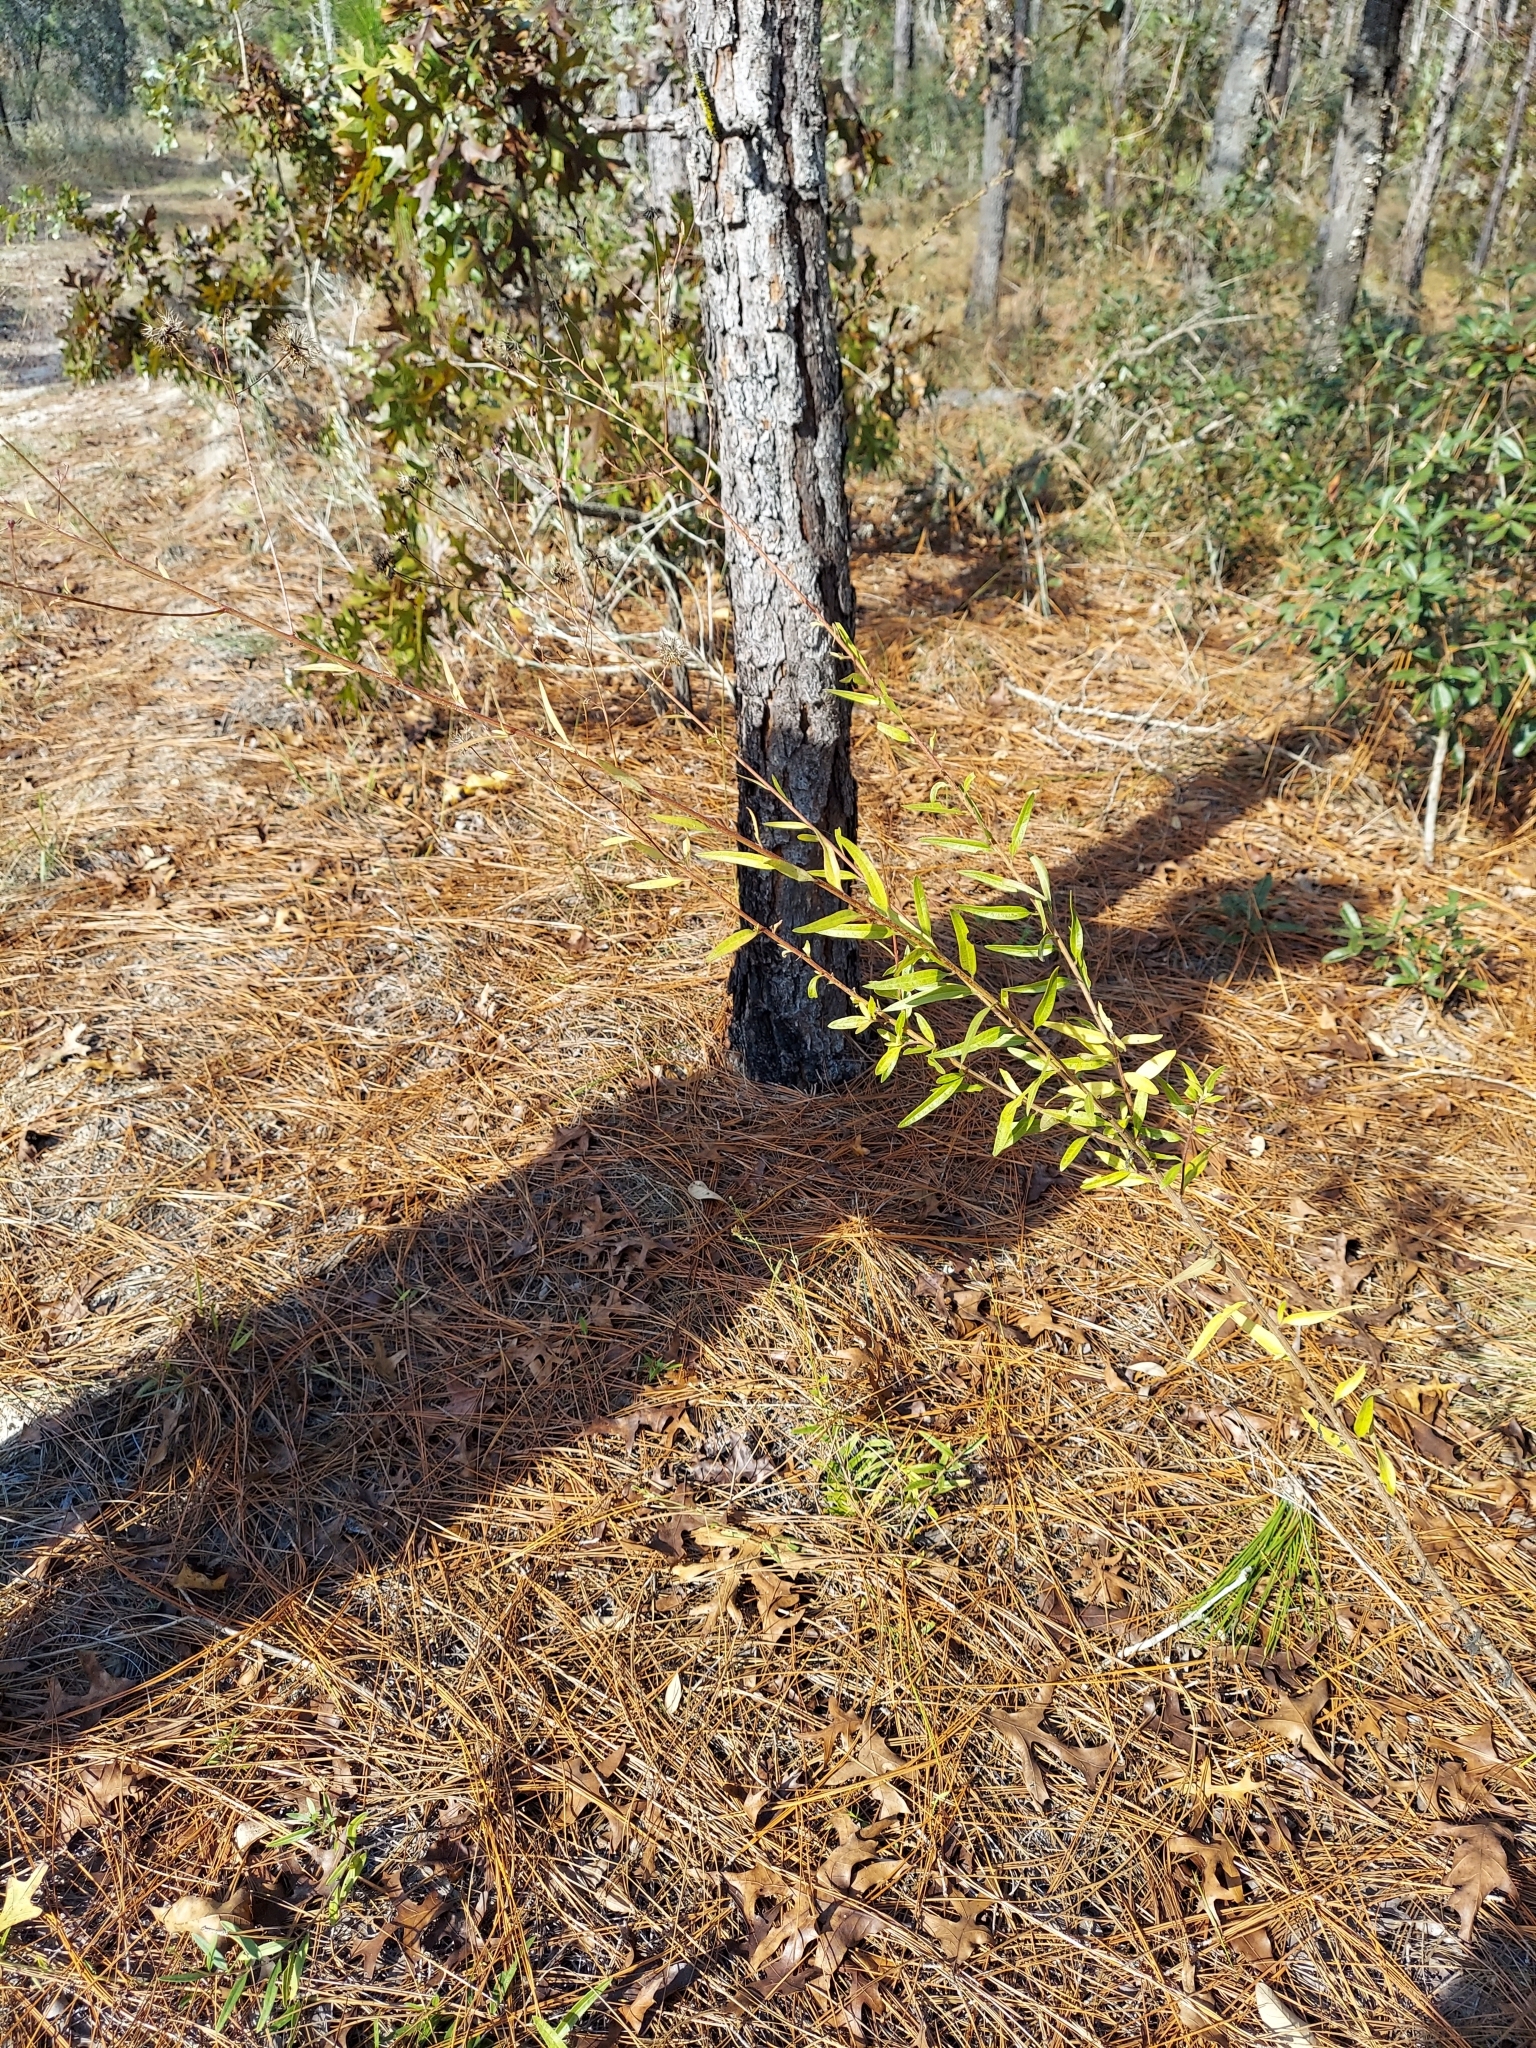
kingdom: Plantae
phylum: Tracheophyta
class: Magnoliopsida
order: Asterales
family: Asteraceae
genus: Palafoxia
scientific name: Palafoxia integrifolia
